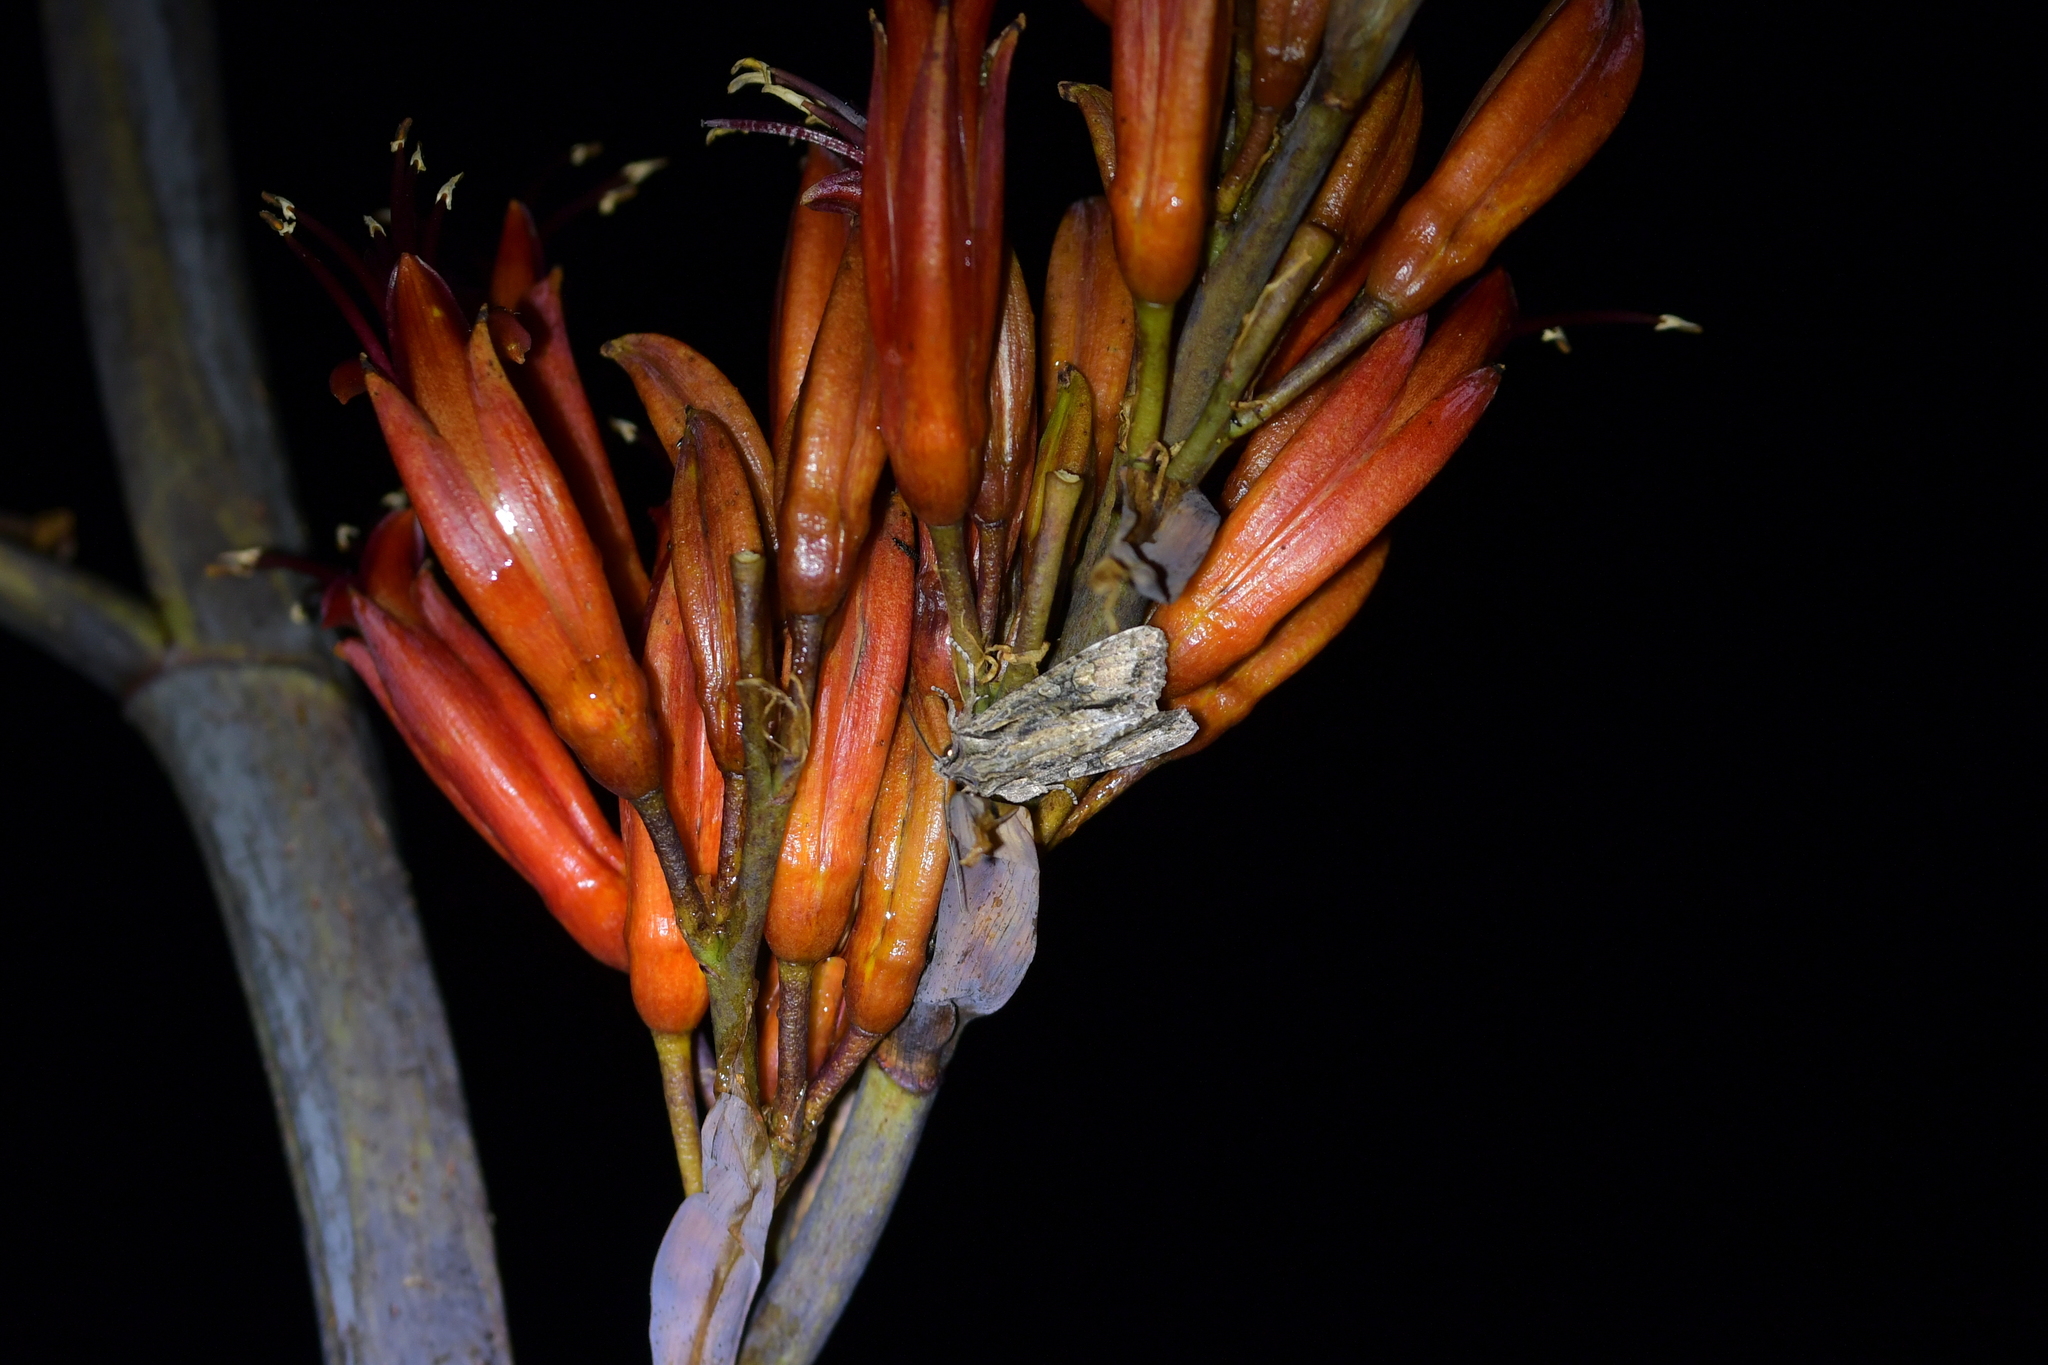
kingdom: Animalia
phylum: Arthropoda
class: Insecta
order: Lepidoptera
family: Noctuidae
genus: Ichneutica
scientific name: Ichneutica mutans
